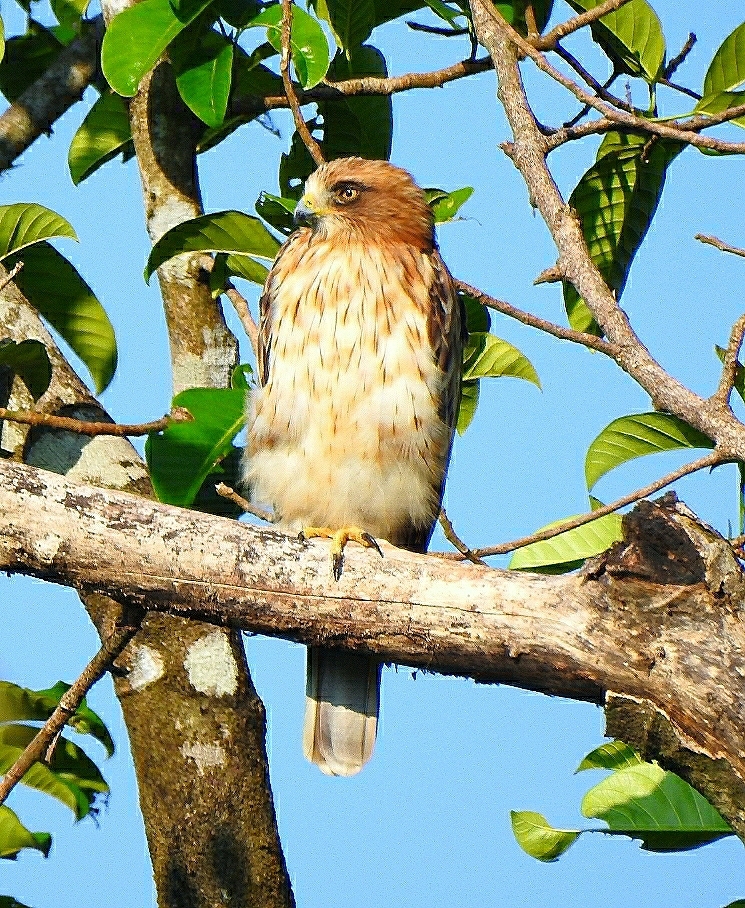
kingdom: Animalia
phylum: Chordata
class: Aves
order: Accipitriformes
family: Accipitridae
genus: Hieraaetus
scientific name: Hieraaetus pennatus
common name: Booted eagle
